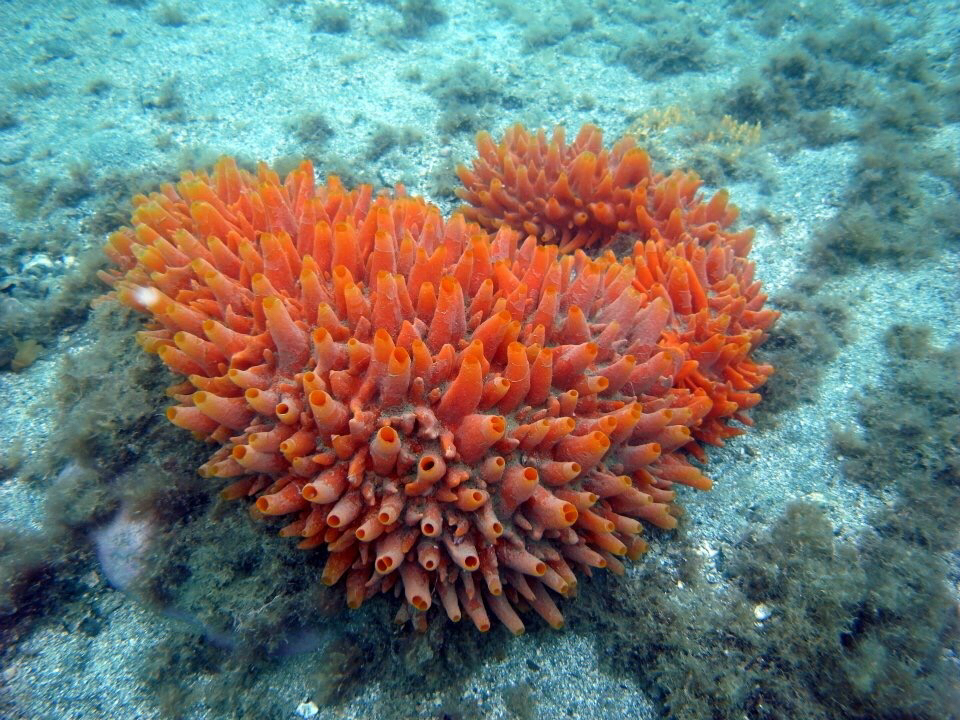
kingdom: Animalia
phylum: Porifera
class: Demospongiae
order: Polymastiida
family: Polymastiidae
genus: Polymastia
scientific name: Polymastia pepo
